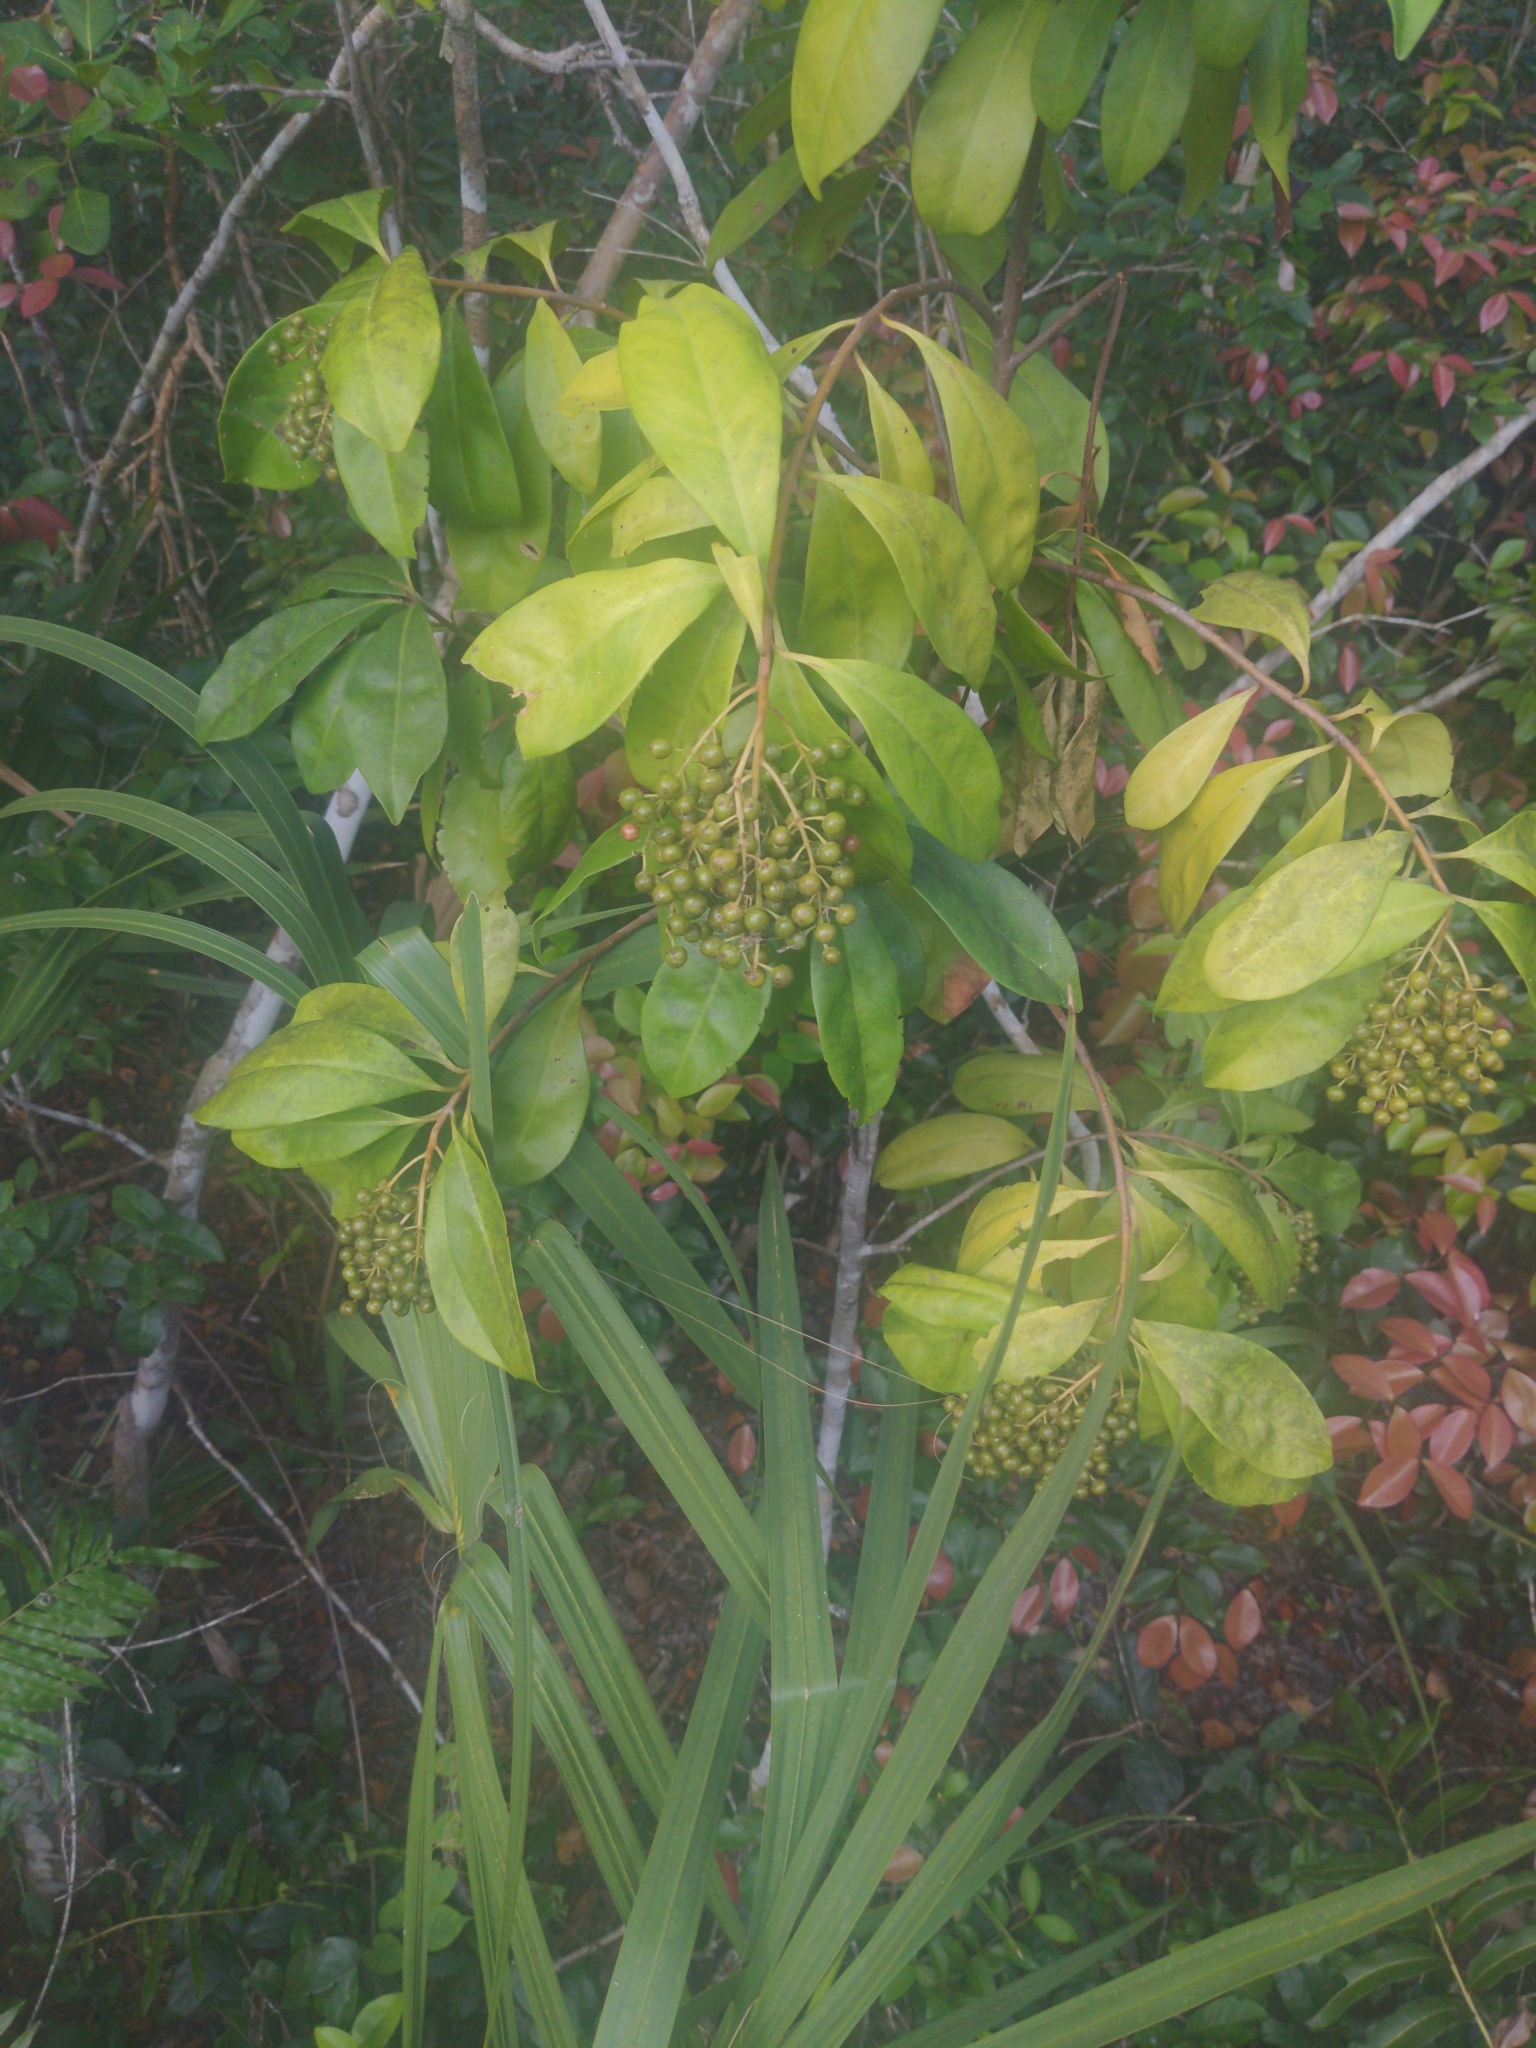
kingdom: Plantae
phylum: Tracheophyta
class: Magnoliopsida
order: Ericales
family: Primulaceae
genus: Ardisia
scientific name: Ardisia escallonioides
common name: Island marlberry
